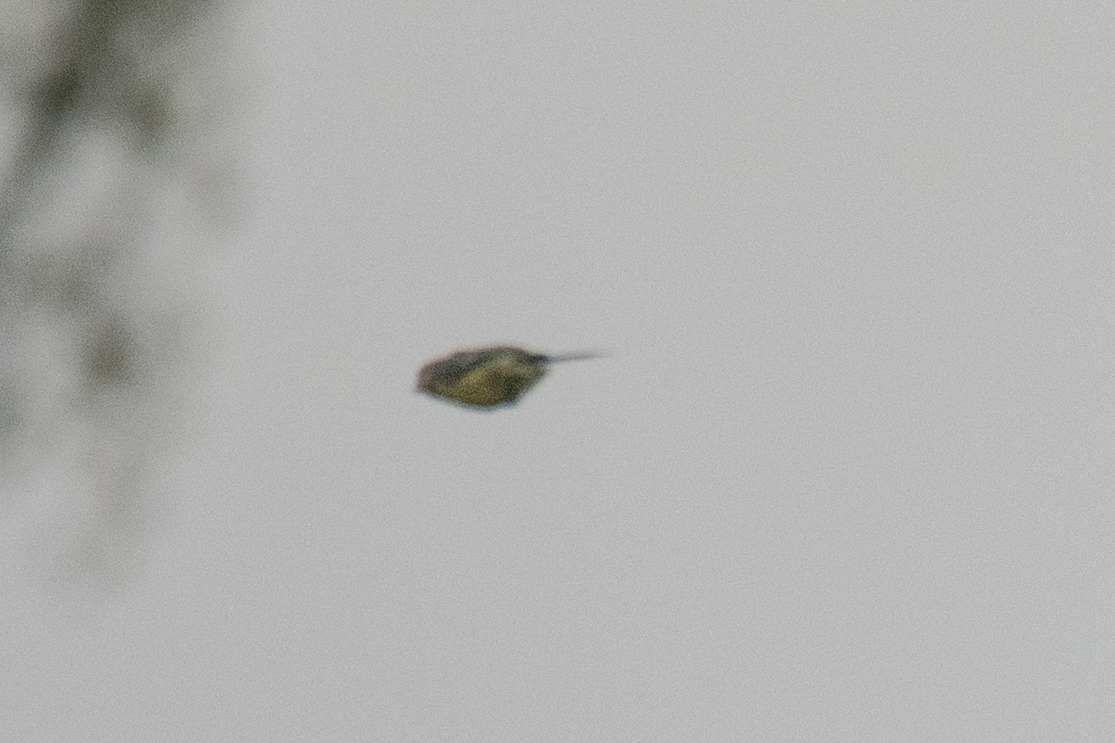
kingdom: Animalia
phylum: Chordata
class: Aves
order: Passeriformes
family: Paridae
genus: Cyanistes
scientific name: Cyanistes caeruleus
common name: Eurasian blue tit
